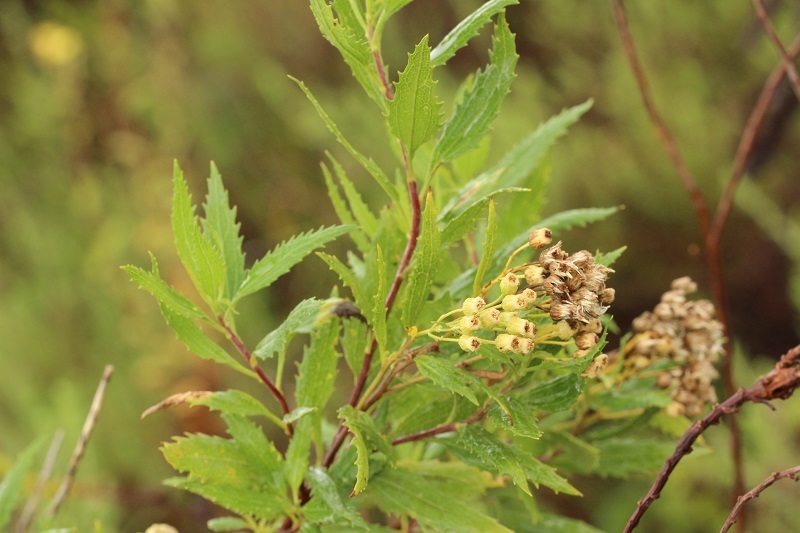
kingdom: Plantae
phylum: Tracheophyta
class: Magnoliopsida
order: Asterales
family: Asteraceae
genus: Nidorella
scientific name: Nidorella ivifolia
